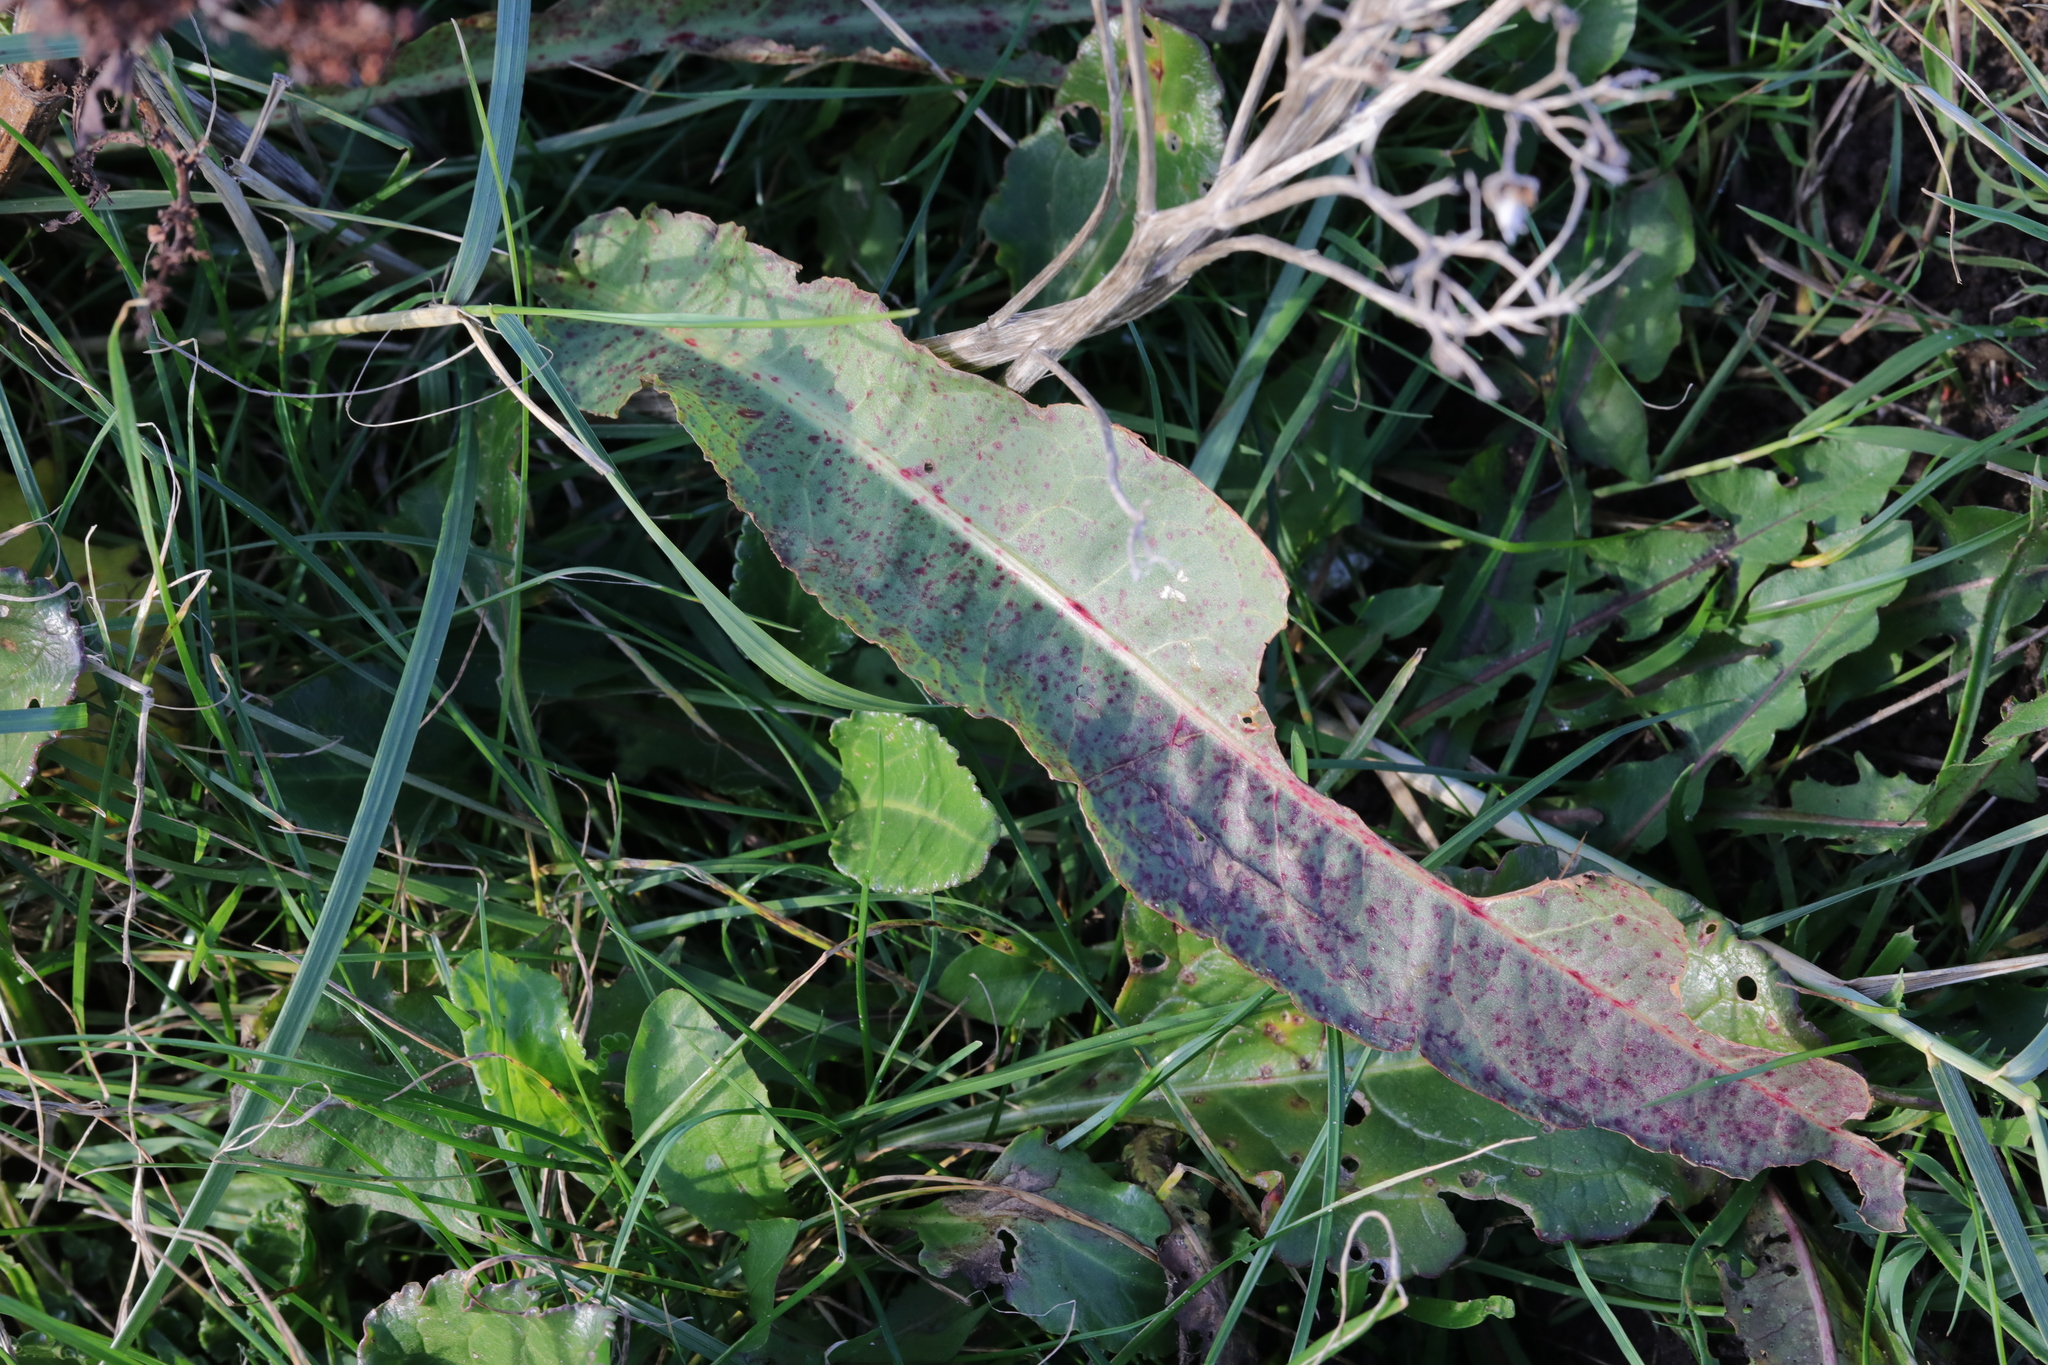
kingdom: Plantae
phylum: Tracheophyta
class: Magnoliopsida
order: Caryophyllales
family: Polygonaceae
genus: Rumex
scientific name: Rumex crispus
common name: Curled dock
